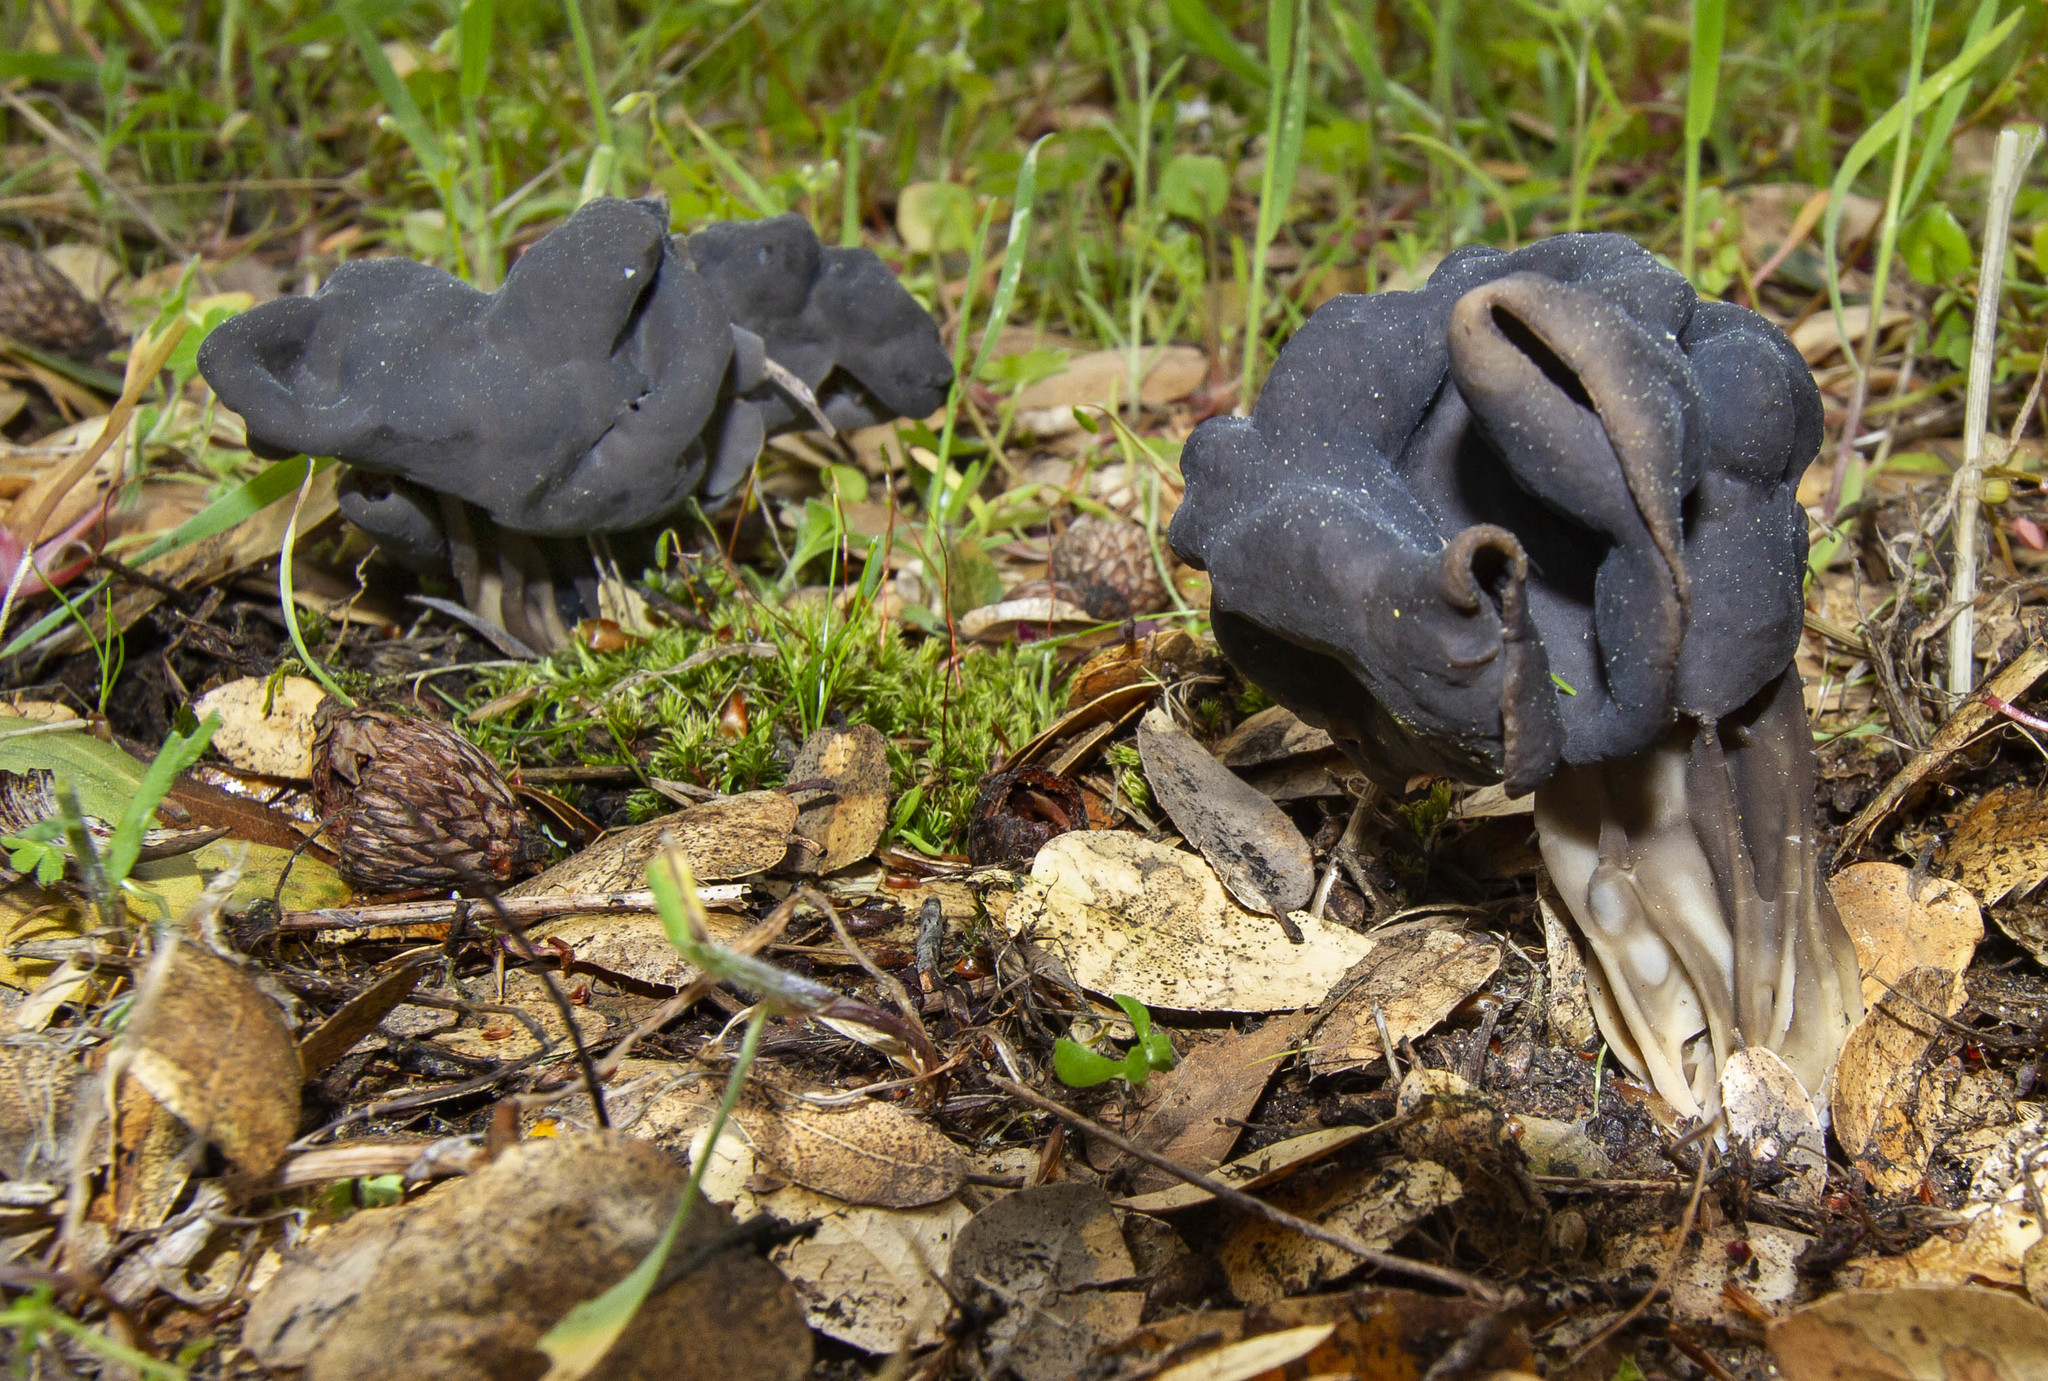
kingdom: Fungi
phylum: Ascomycota
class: Pezizomycetes
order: Pezizales
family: Helvellaceae
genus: Helvella
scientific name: Helvella dryophila
